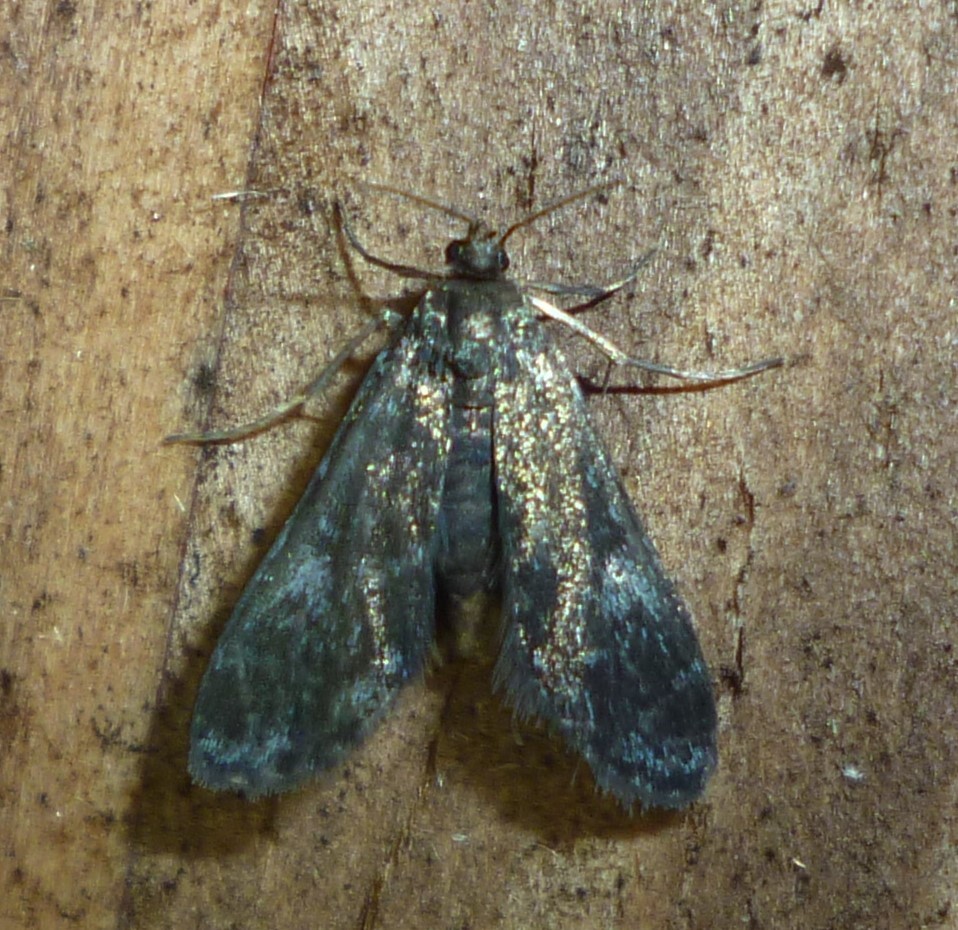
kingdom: Animalia
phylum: Arthropoda
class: Insecta
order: Lepidoptera
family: Crambidae
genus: Elophila
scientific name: Elophila tinealis
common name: Black duckweed moth
